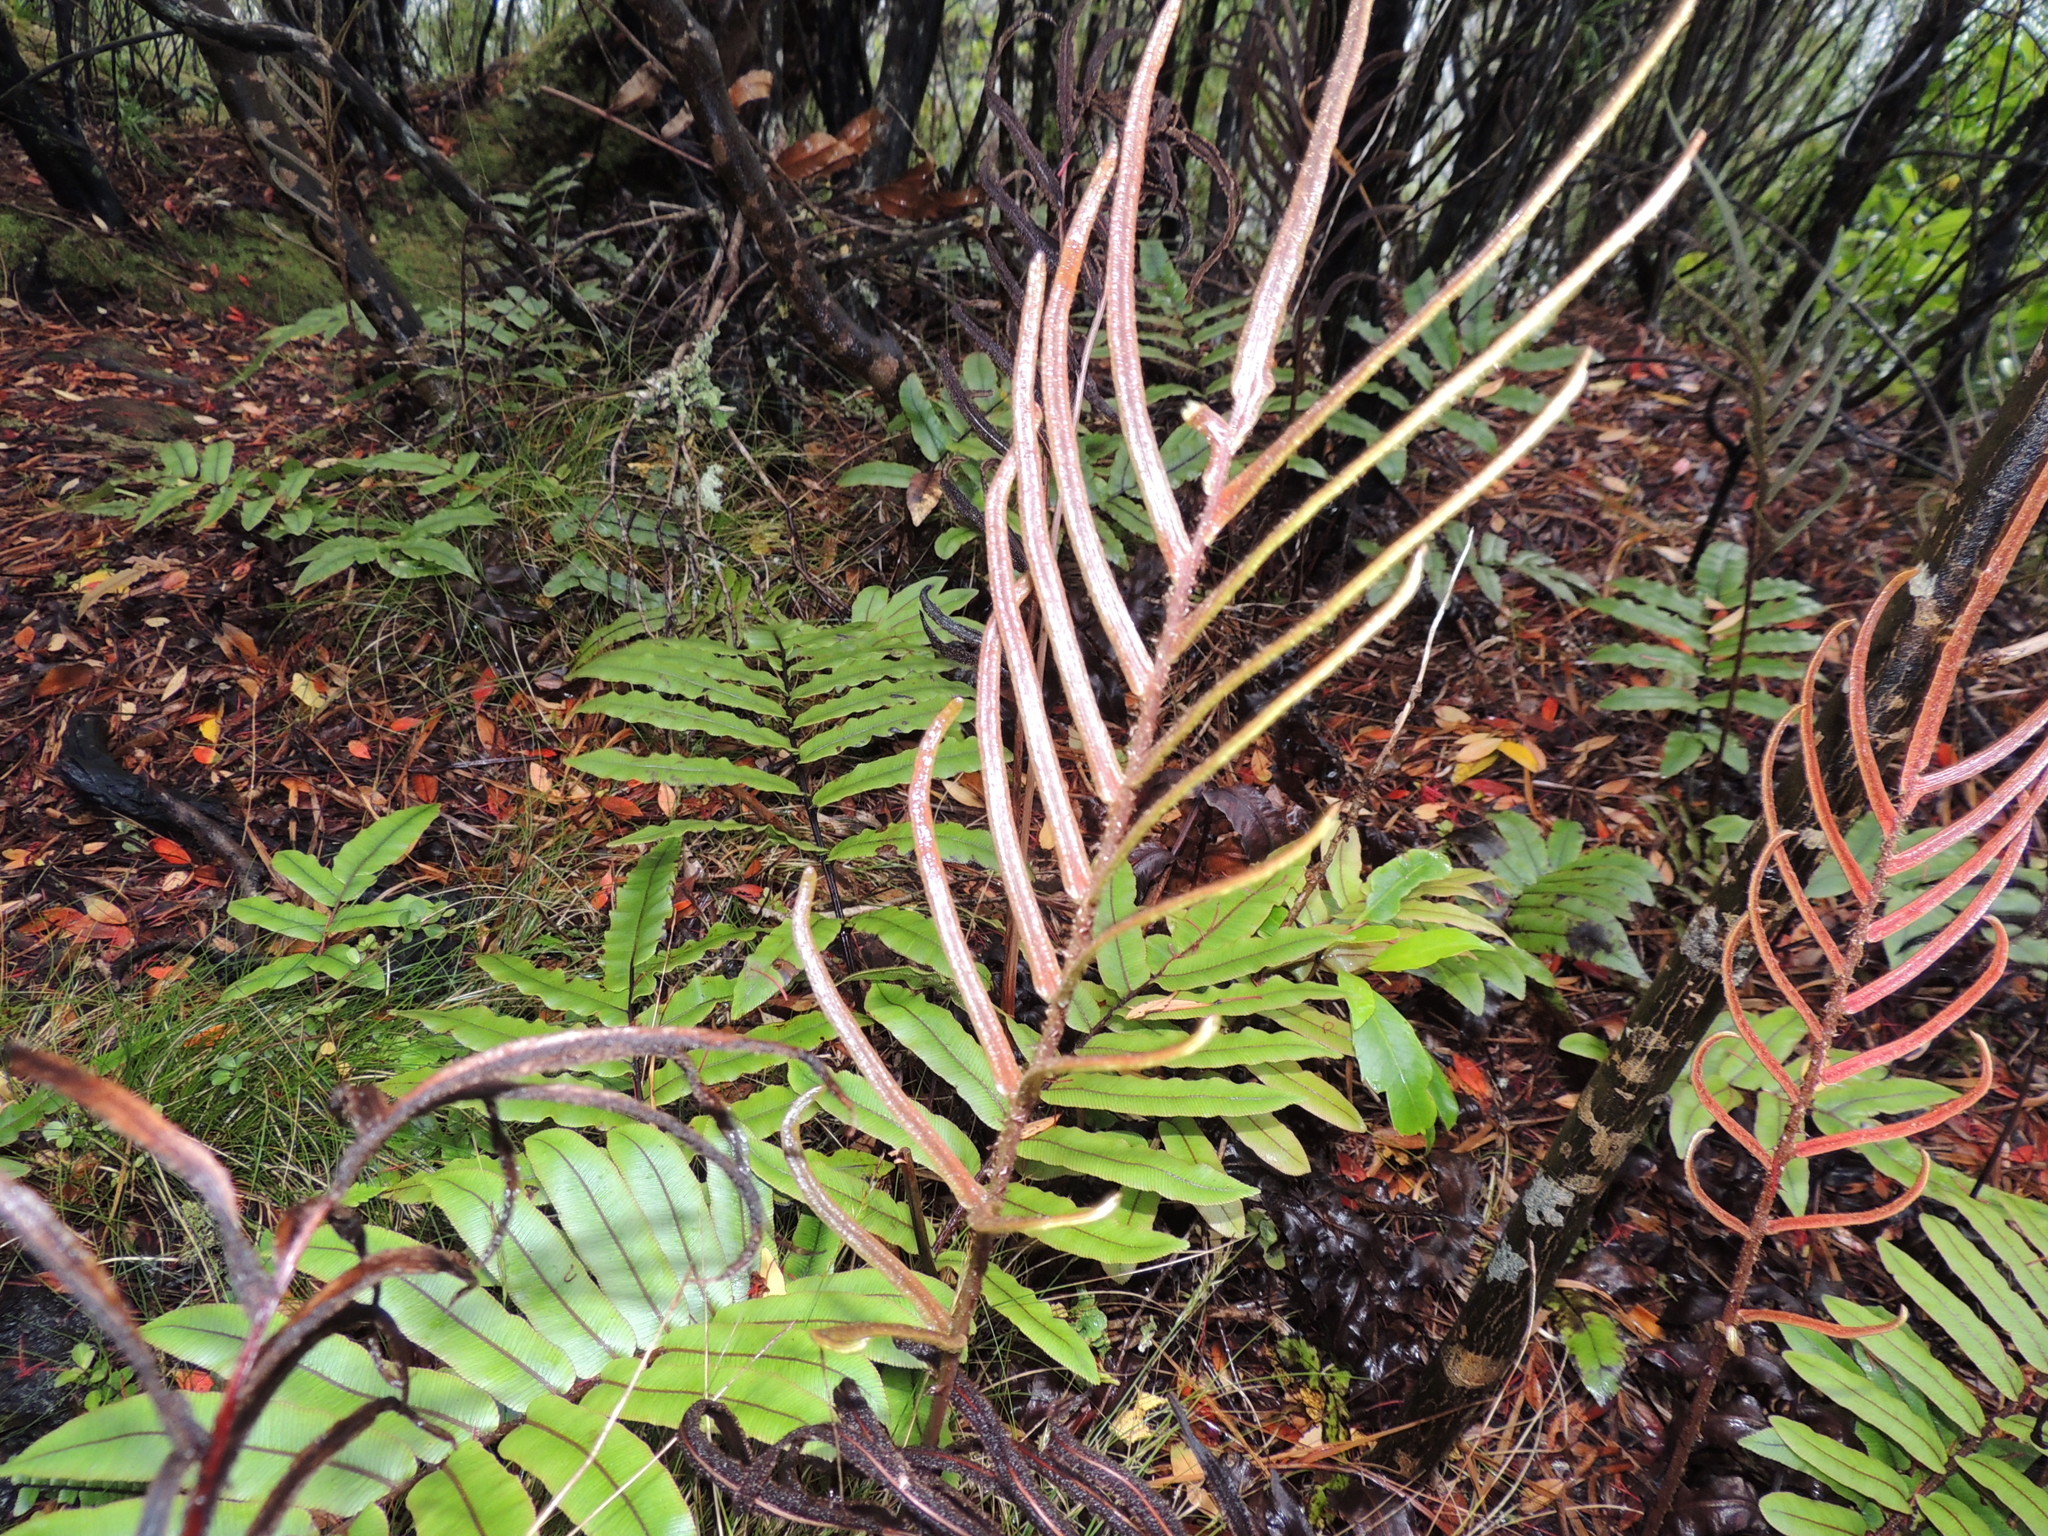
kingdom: Plantae
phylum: Tracheophyta
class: Polypodiopsida
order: Polypodiales
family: Blechnaceae
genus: Parablechnum
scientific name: Parablechnum procerum
